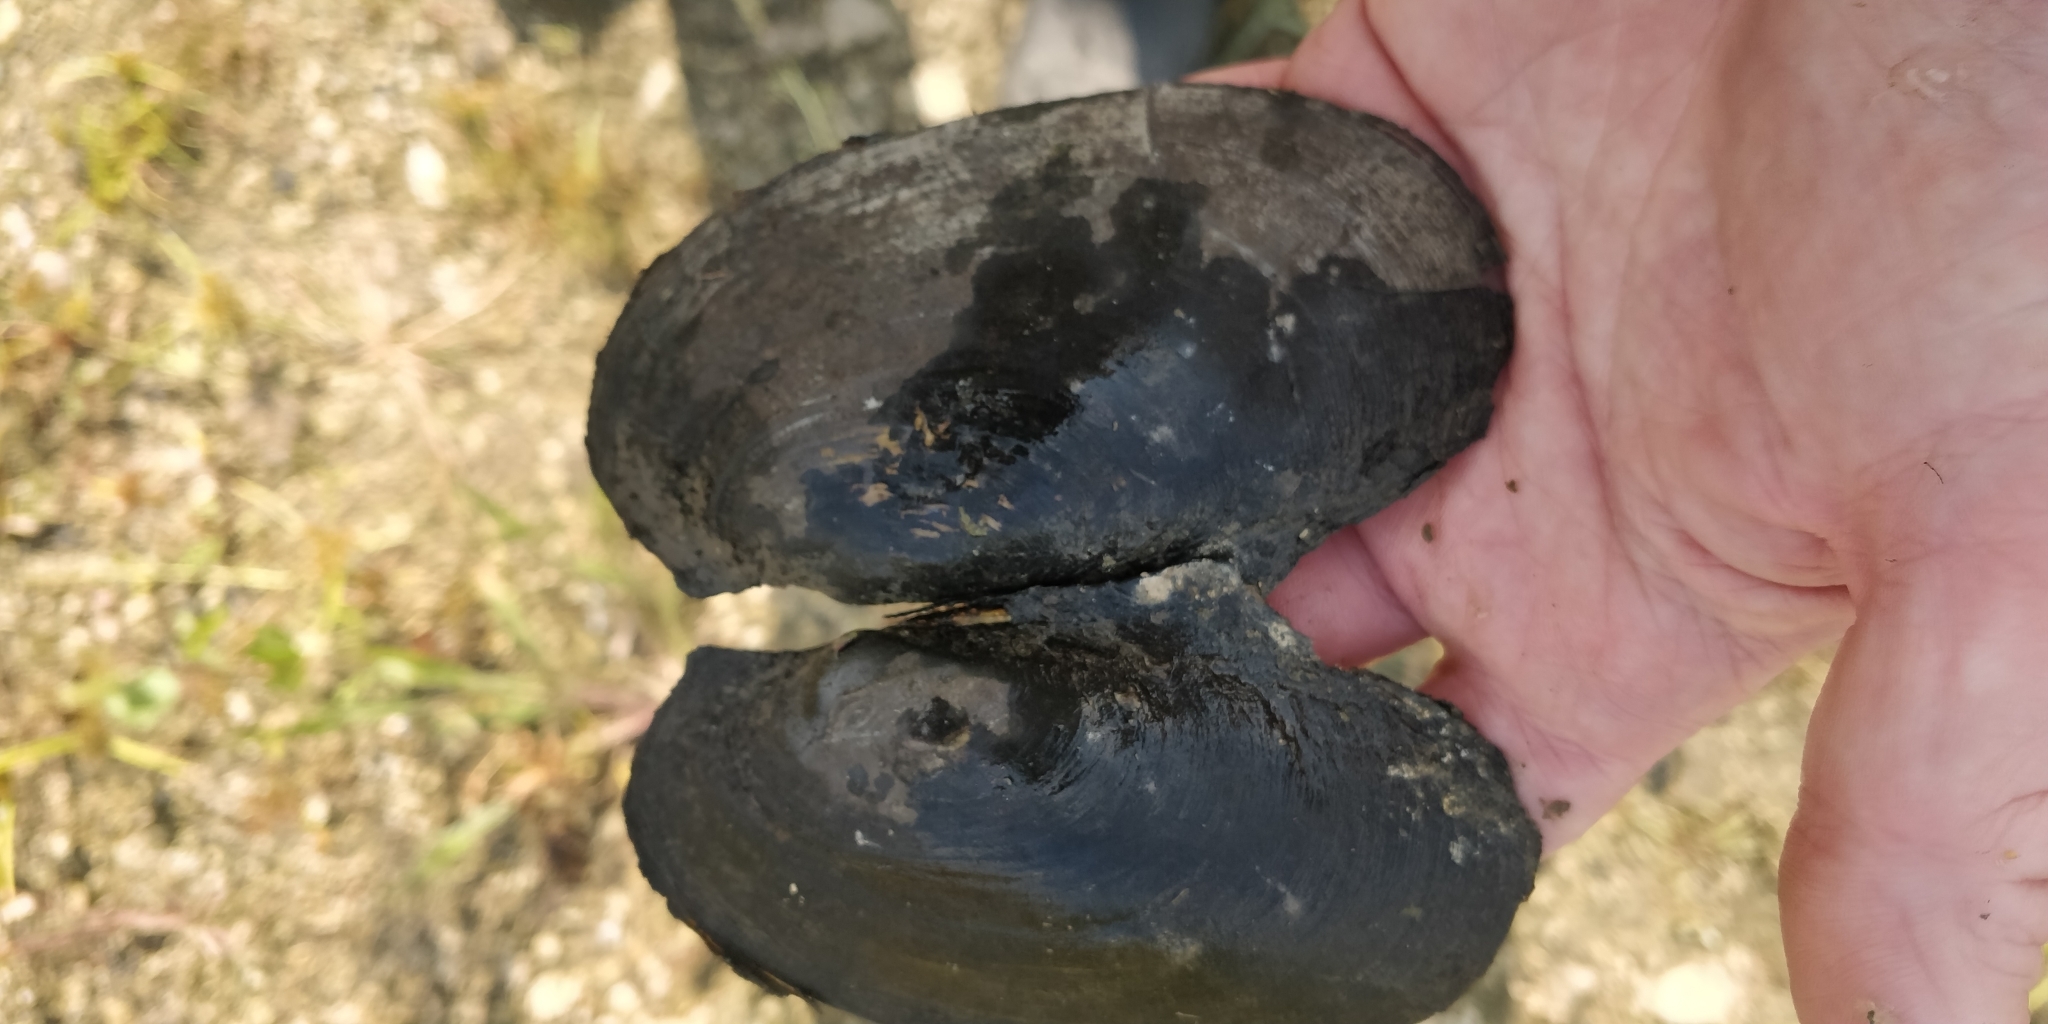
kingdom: Animalia
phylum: Mollusca
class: Bivalvia
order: Unionida
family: Unionidae
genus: Potamilus
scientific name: Potamilus fragilis
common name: Fragile papershell
